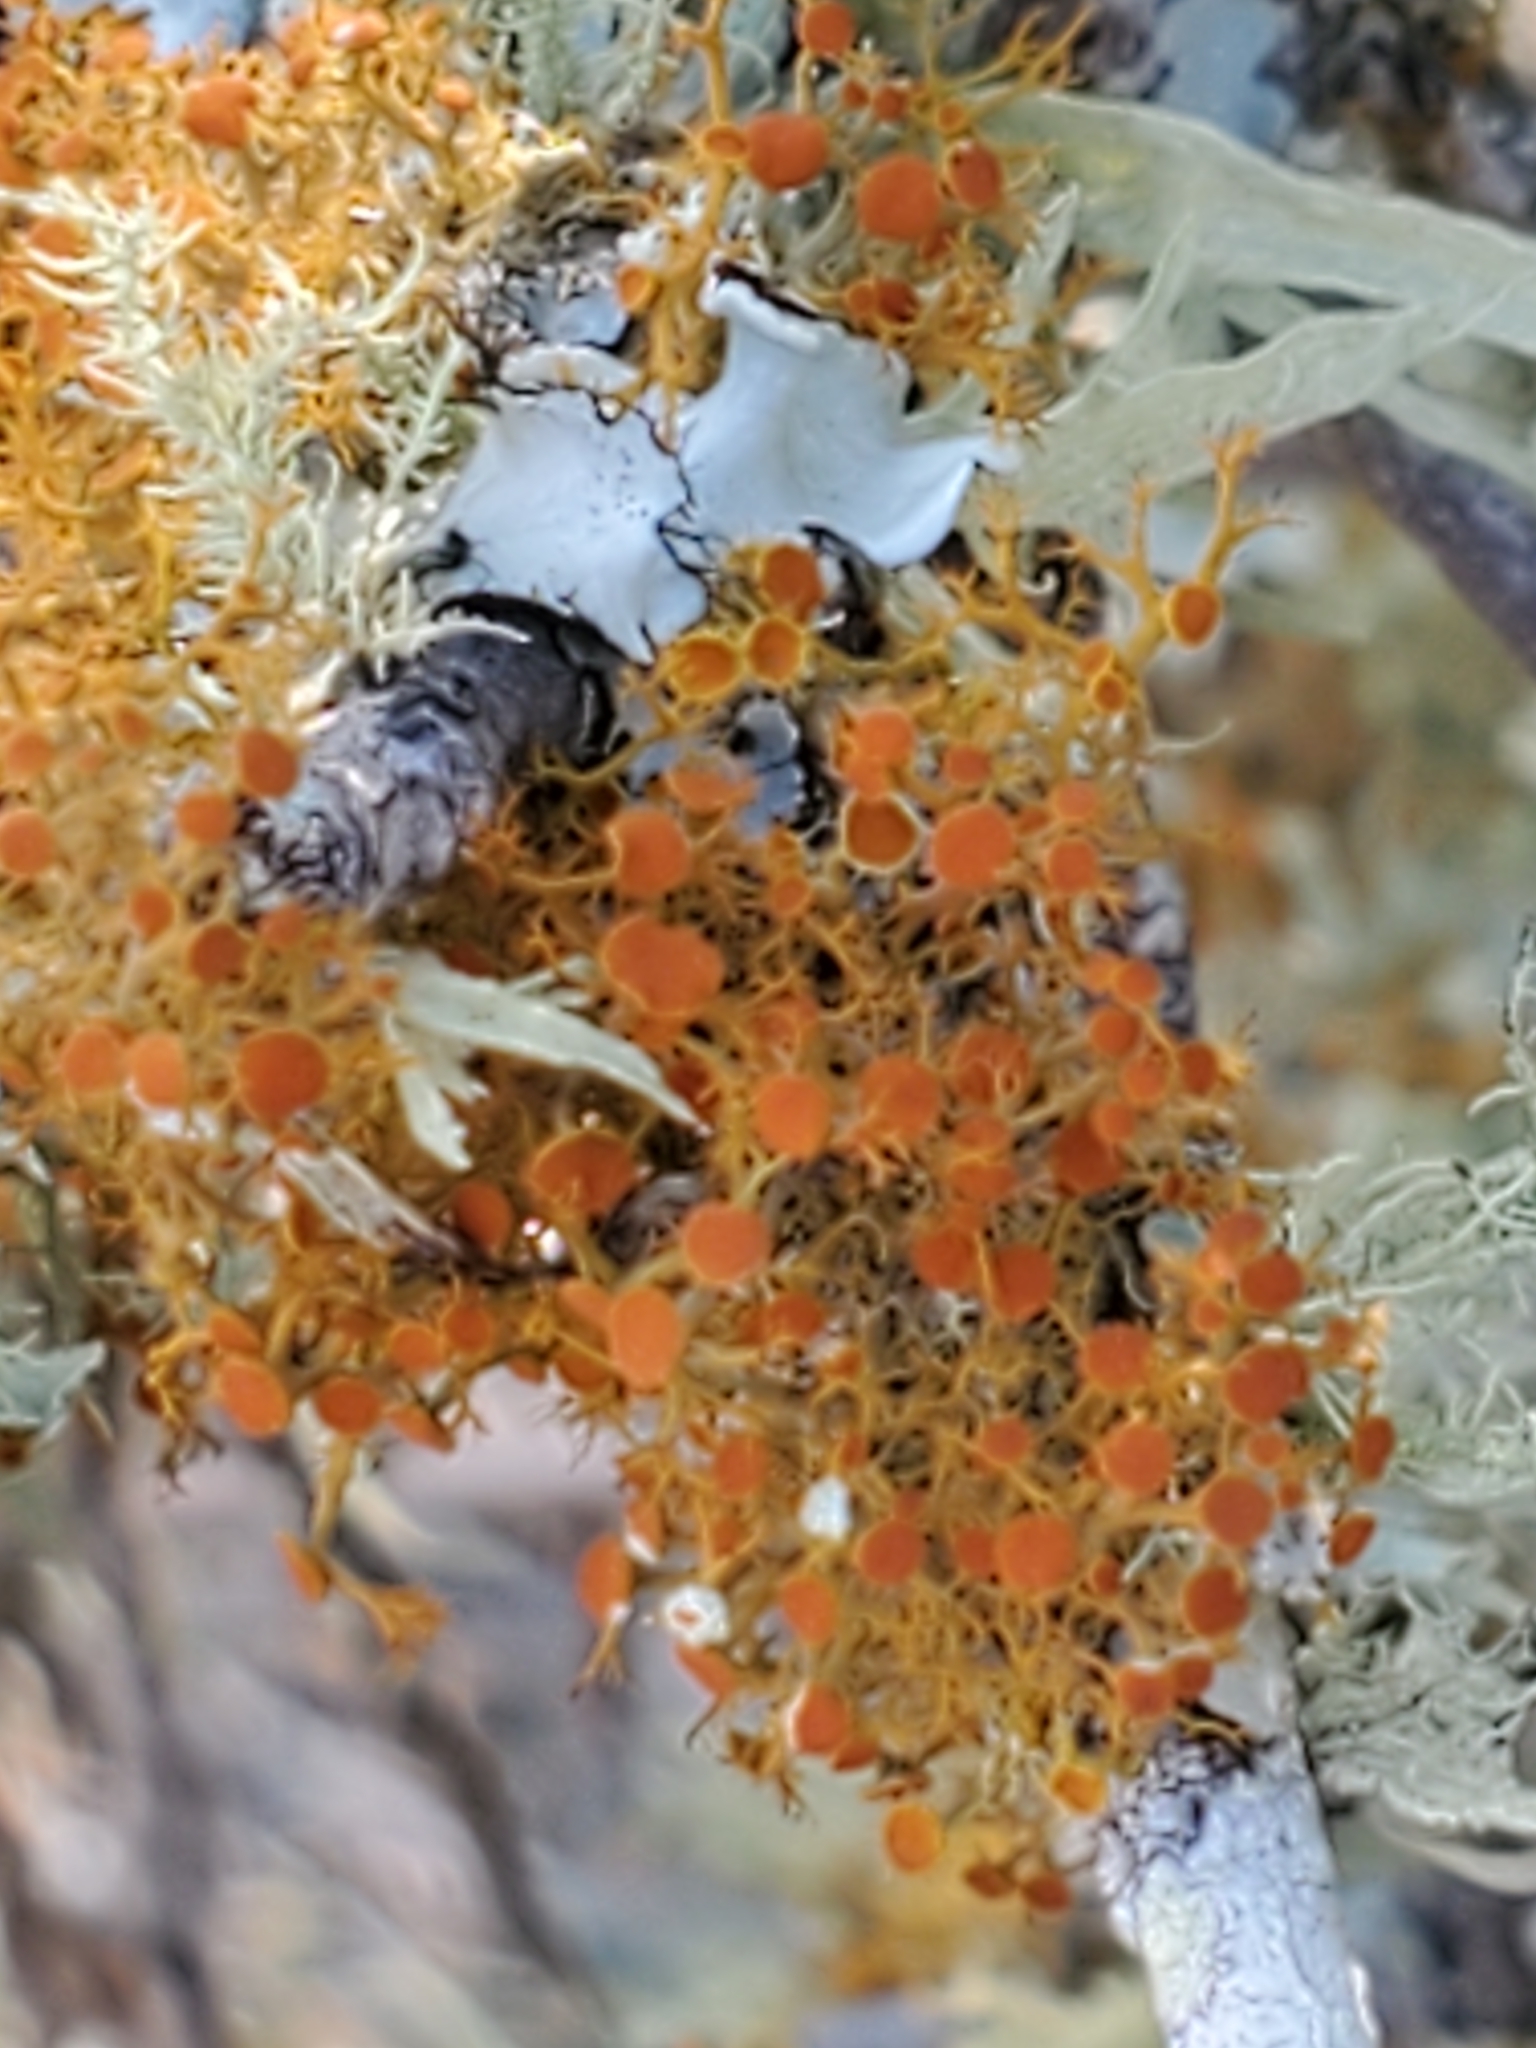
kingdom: Fungi
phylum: Ascomycota
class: Lecanoromycetes
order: Teloschistales
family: Teloschistaceae
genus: Teloschistes
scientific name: Teloschistes exilis
